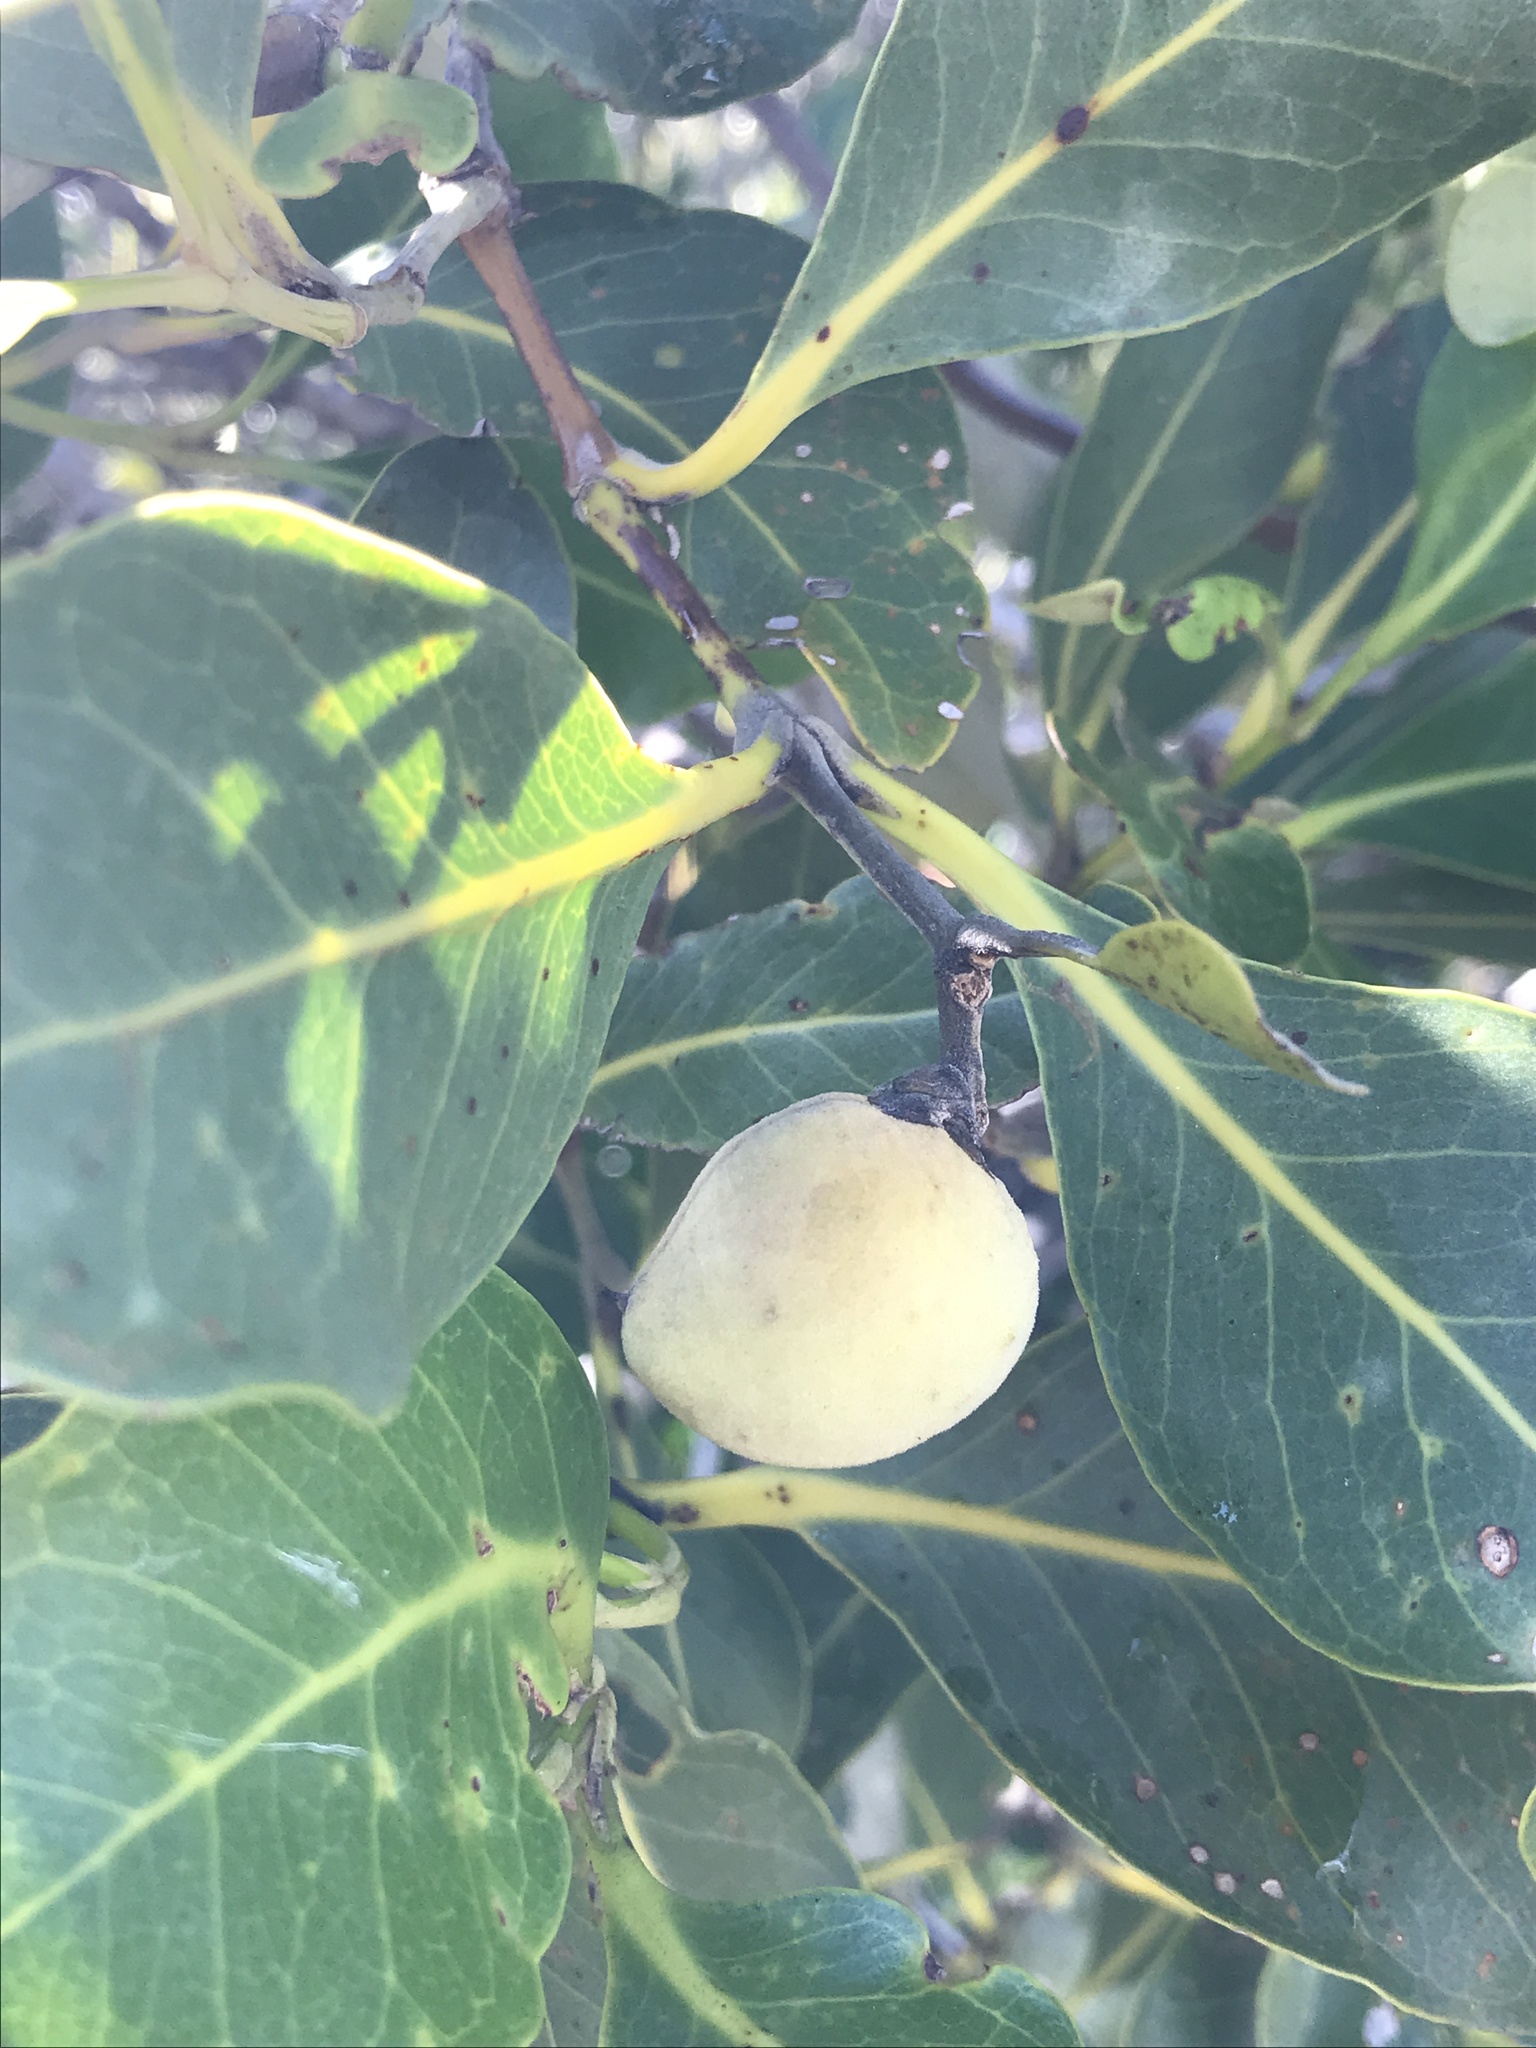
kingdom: Plantae
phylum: Tracheophyta
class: Magnoliopsida
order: Lamiales
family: Acanthaceae
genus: Avicennia
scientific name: Avicennia marina
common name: Gray mangrove
